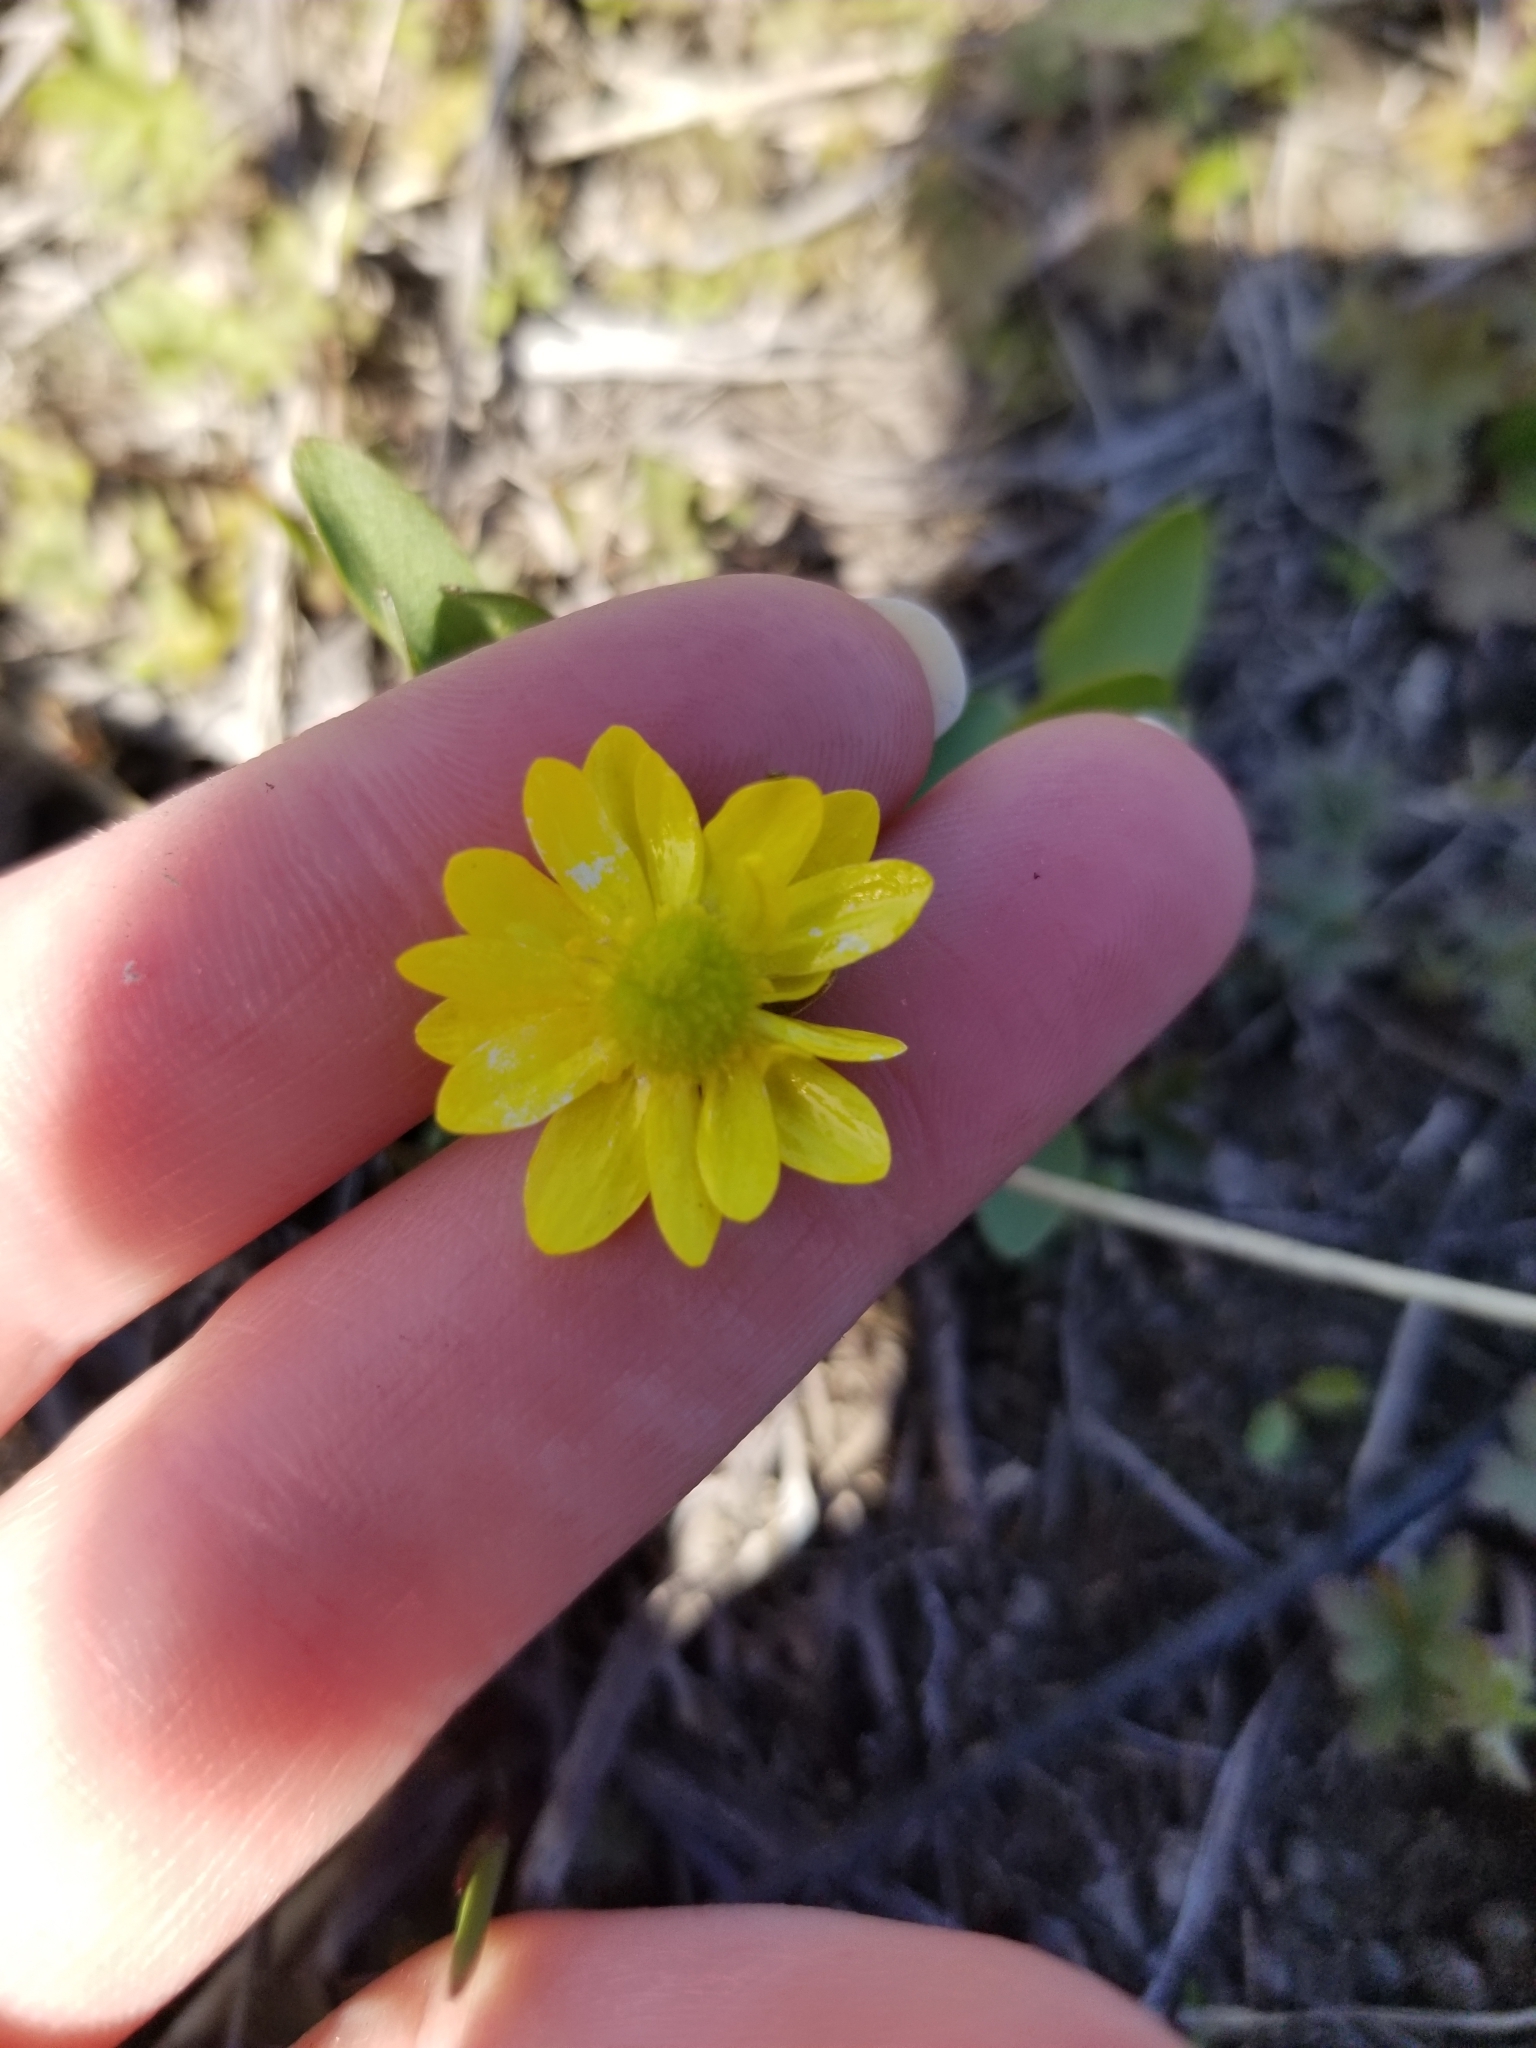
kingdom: Plantae
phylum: Tracheophyta
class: Magnoliopsida
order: Ranunculales
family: Ranunculaceae
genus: Ranunculus
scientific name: Ranunculus glaberrimus
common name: Sagebrush buttercup
